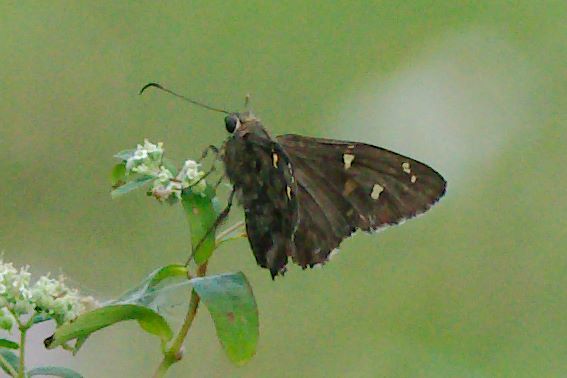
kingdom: Animalia
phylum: Arthropoda
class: Insecta
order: Lepidoptera
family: Hesperiidae
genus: Thorybes
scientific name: Thorybes
